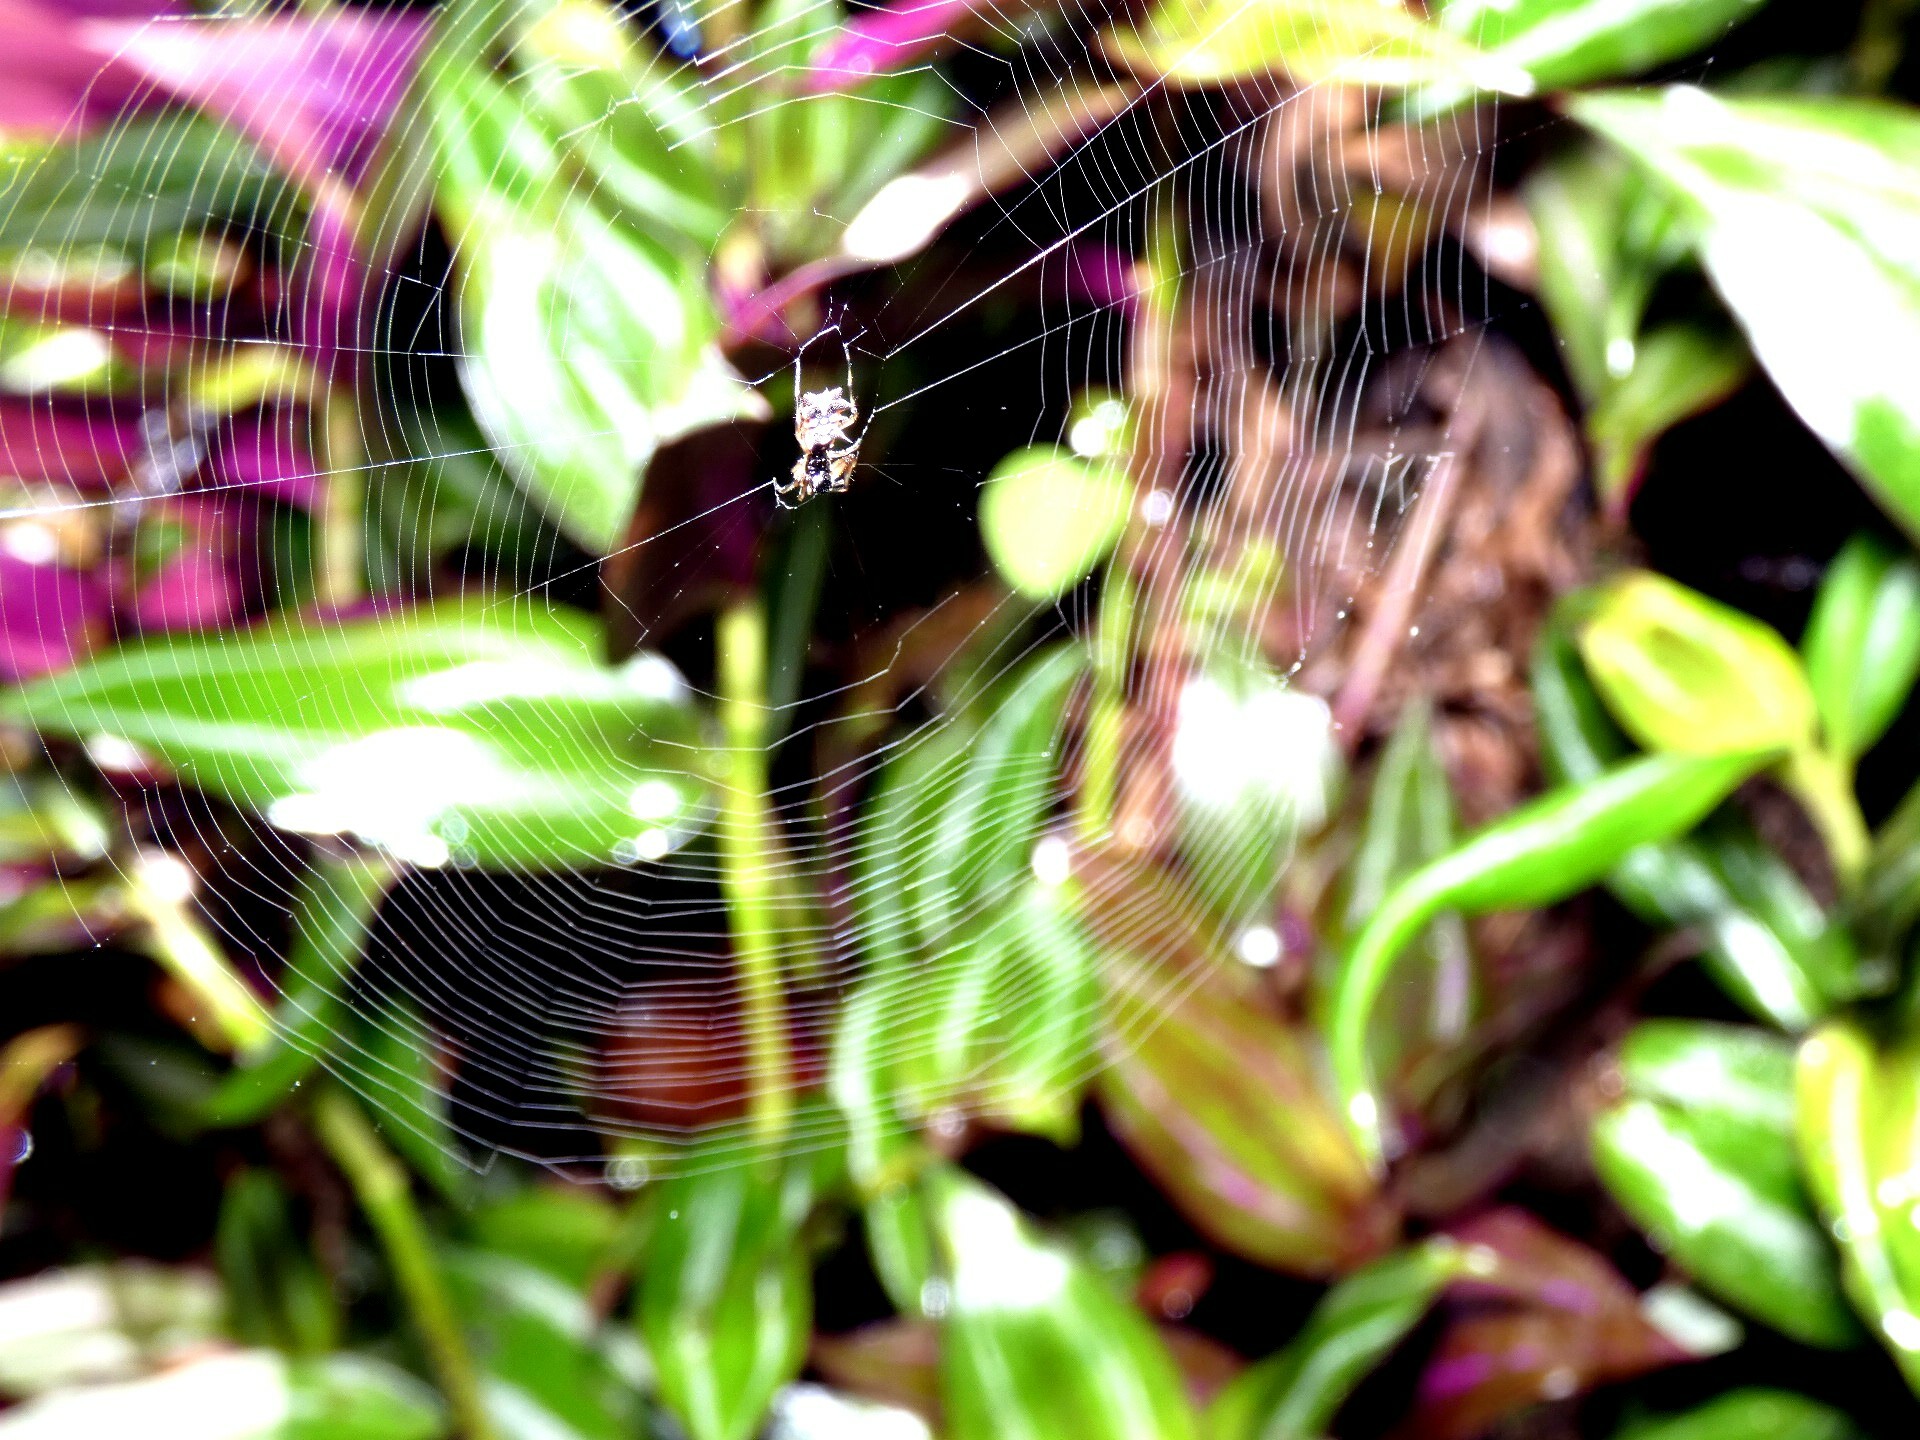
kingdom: Animalia
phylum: Arthropoda
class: Arachnida
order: Araneae
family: Araneidae
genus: Micrathena
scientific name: Micrathena picta
